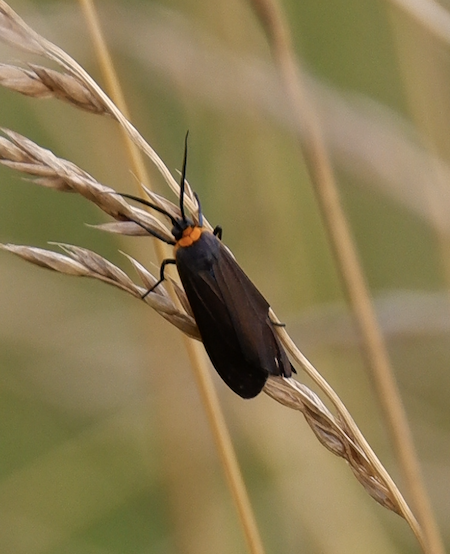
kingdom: Animalia
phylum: Arthropoda
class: Insecta
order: Lepidoptera
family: Erebidae
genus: Cisseps
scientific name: Cisseps fulvicollis
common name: Yellow-collared scape moth
